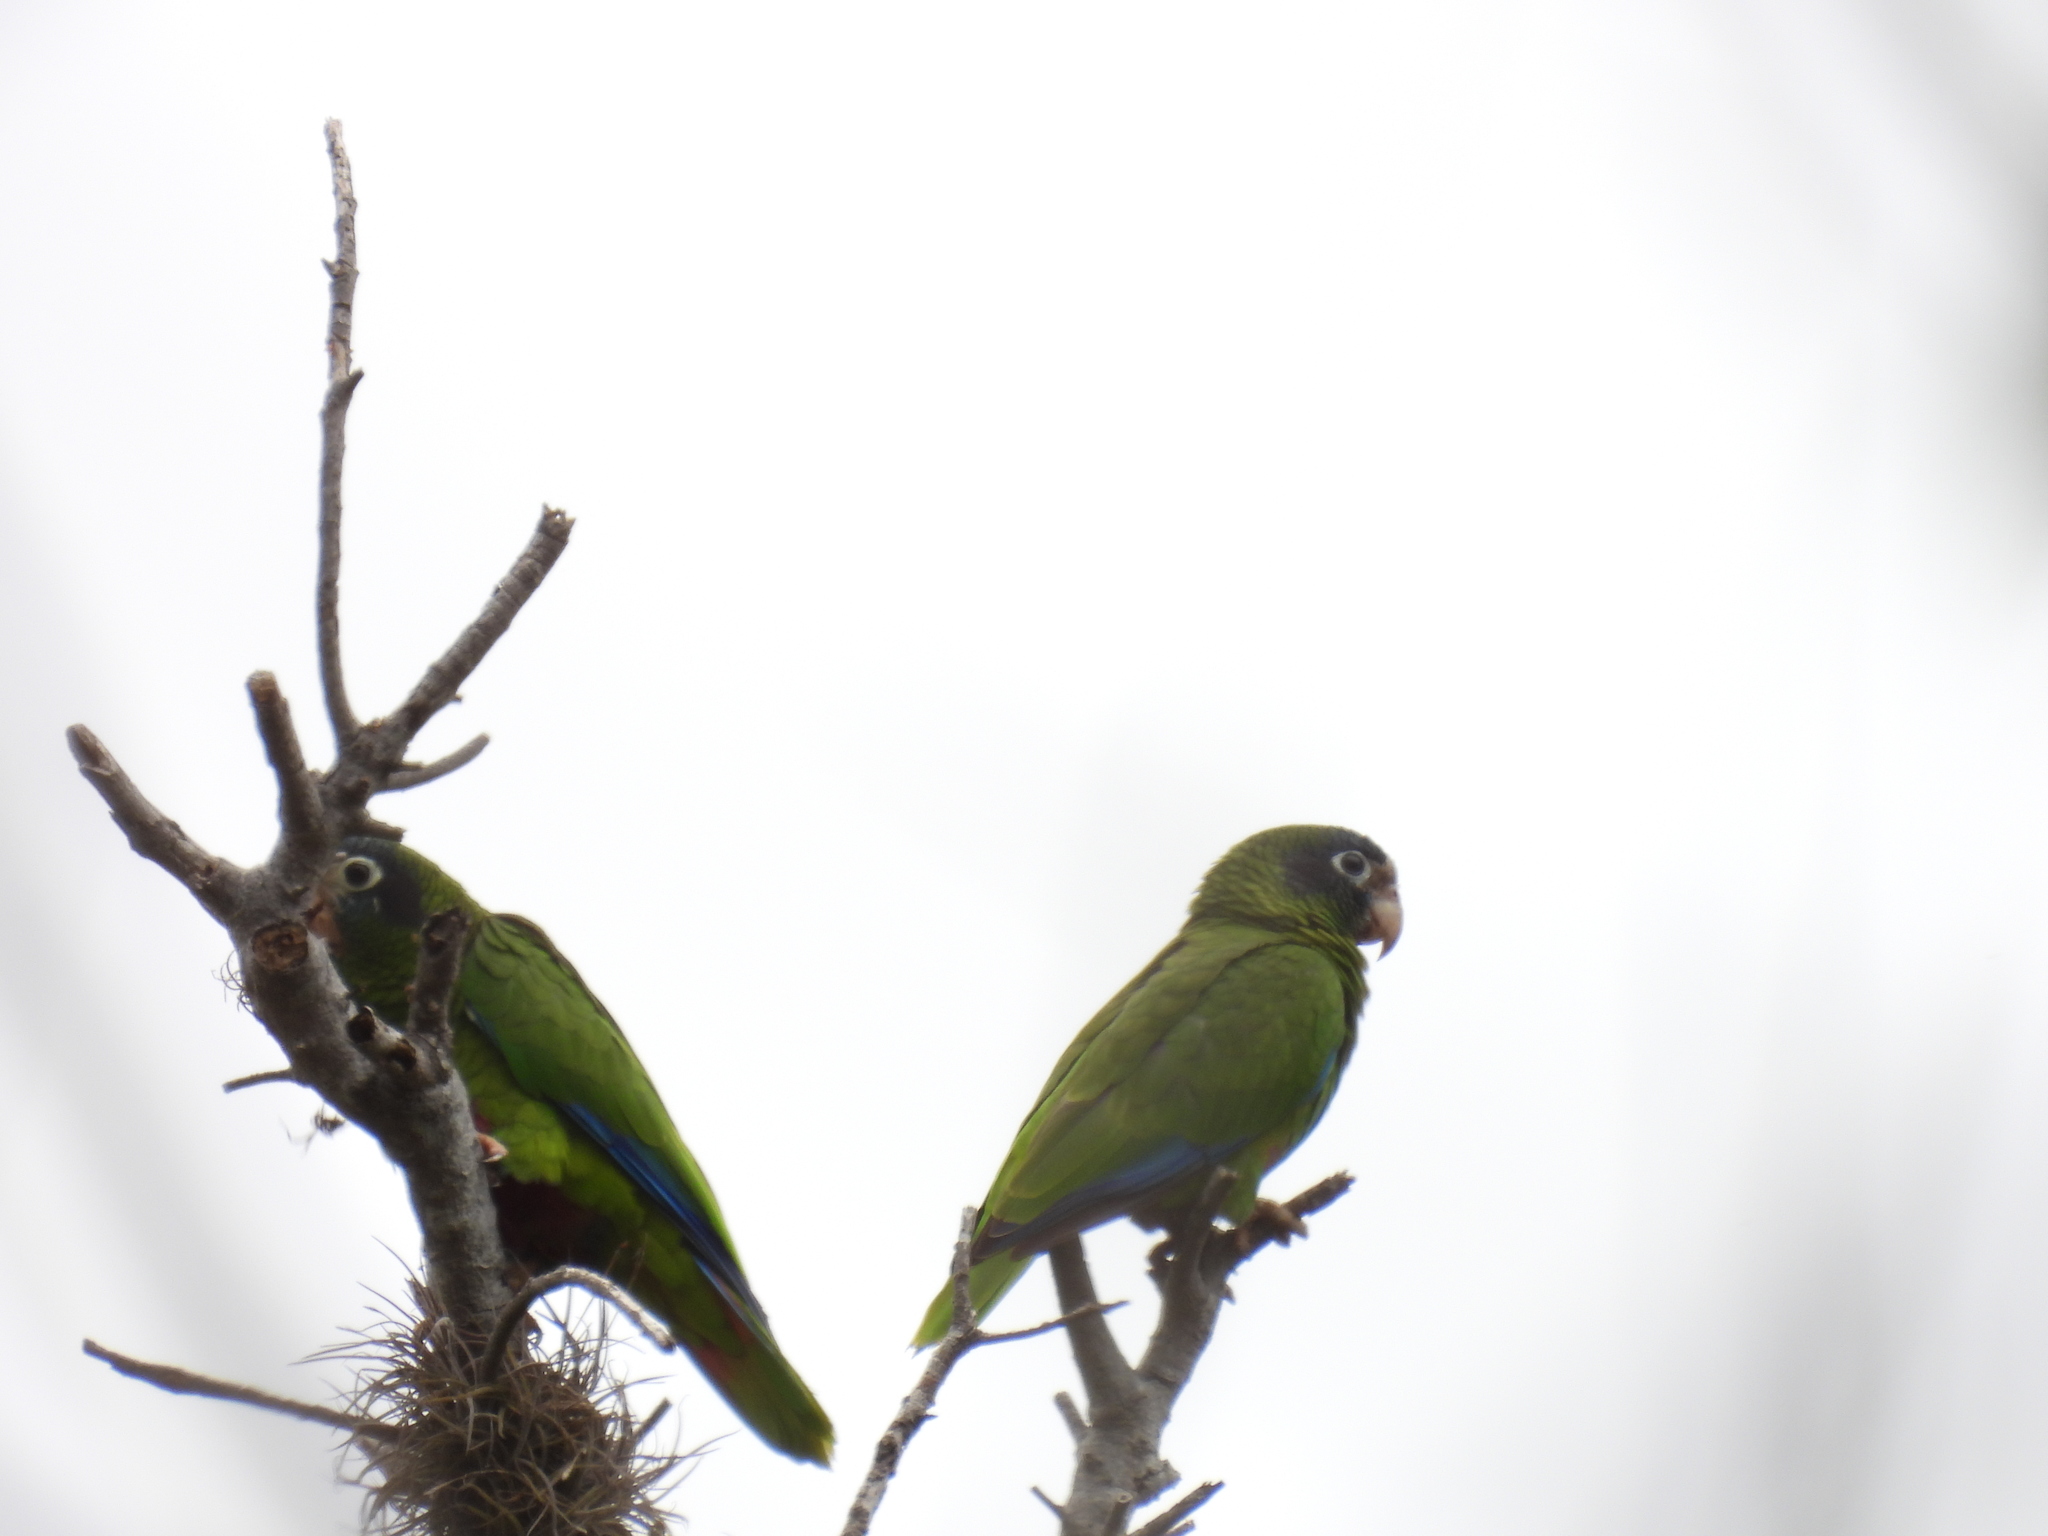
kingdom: Animalia
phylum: Chordata
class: Aves
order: Psittaciformes
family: Psittacidae
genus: Amazona
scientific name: Amazona ventralis
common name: Hispaniolan parrot
